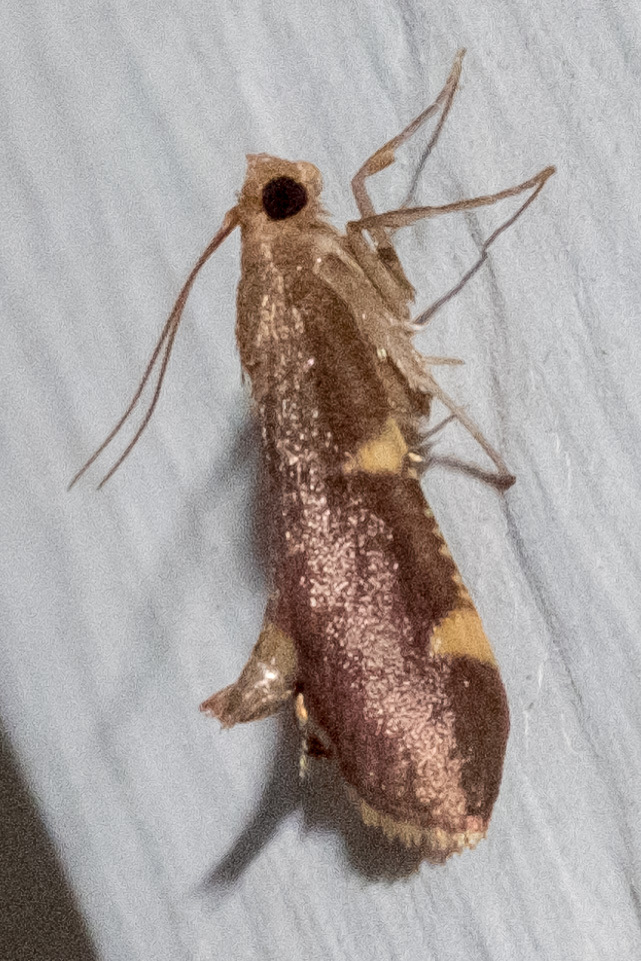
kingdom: Animalia
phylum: Arthropoda
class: Insecta
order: Lepidoptera
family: Pyralidae
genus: Hypsopygia
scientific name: Hypsopygia olinalis
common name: Yellow-fringed dolichomia moth
